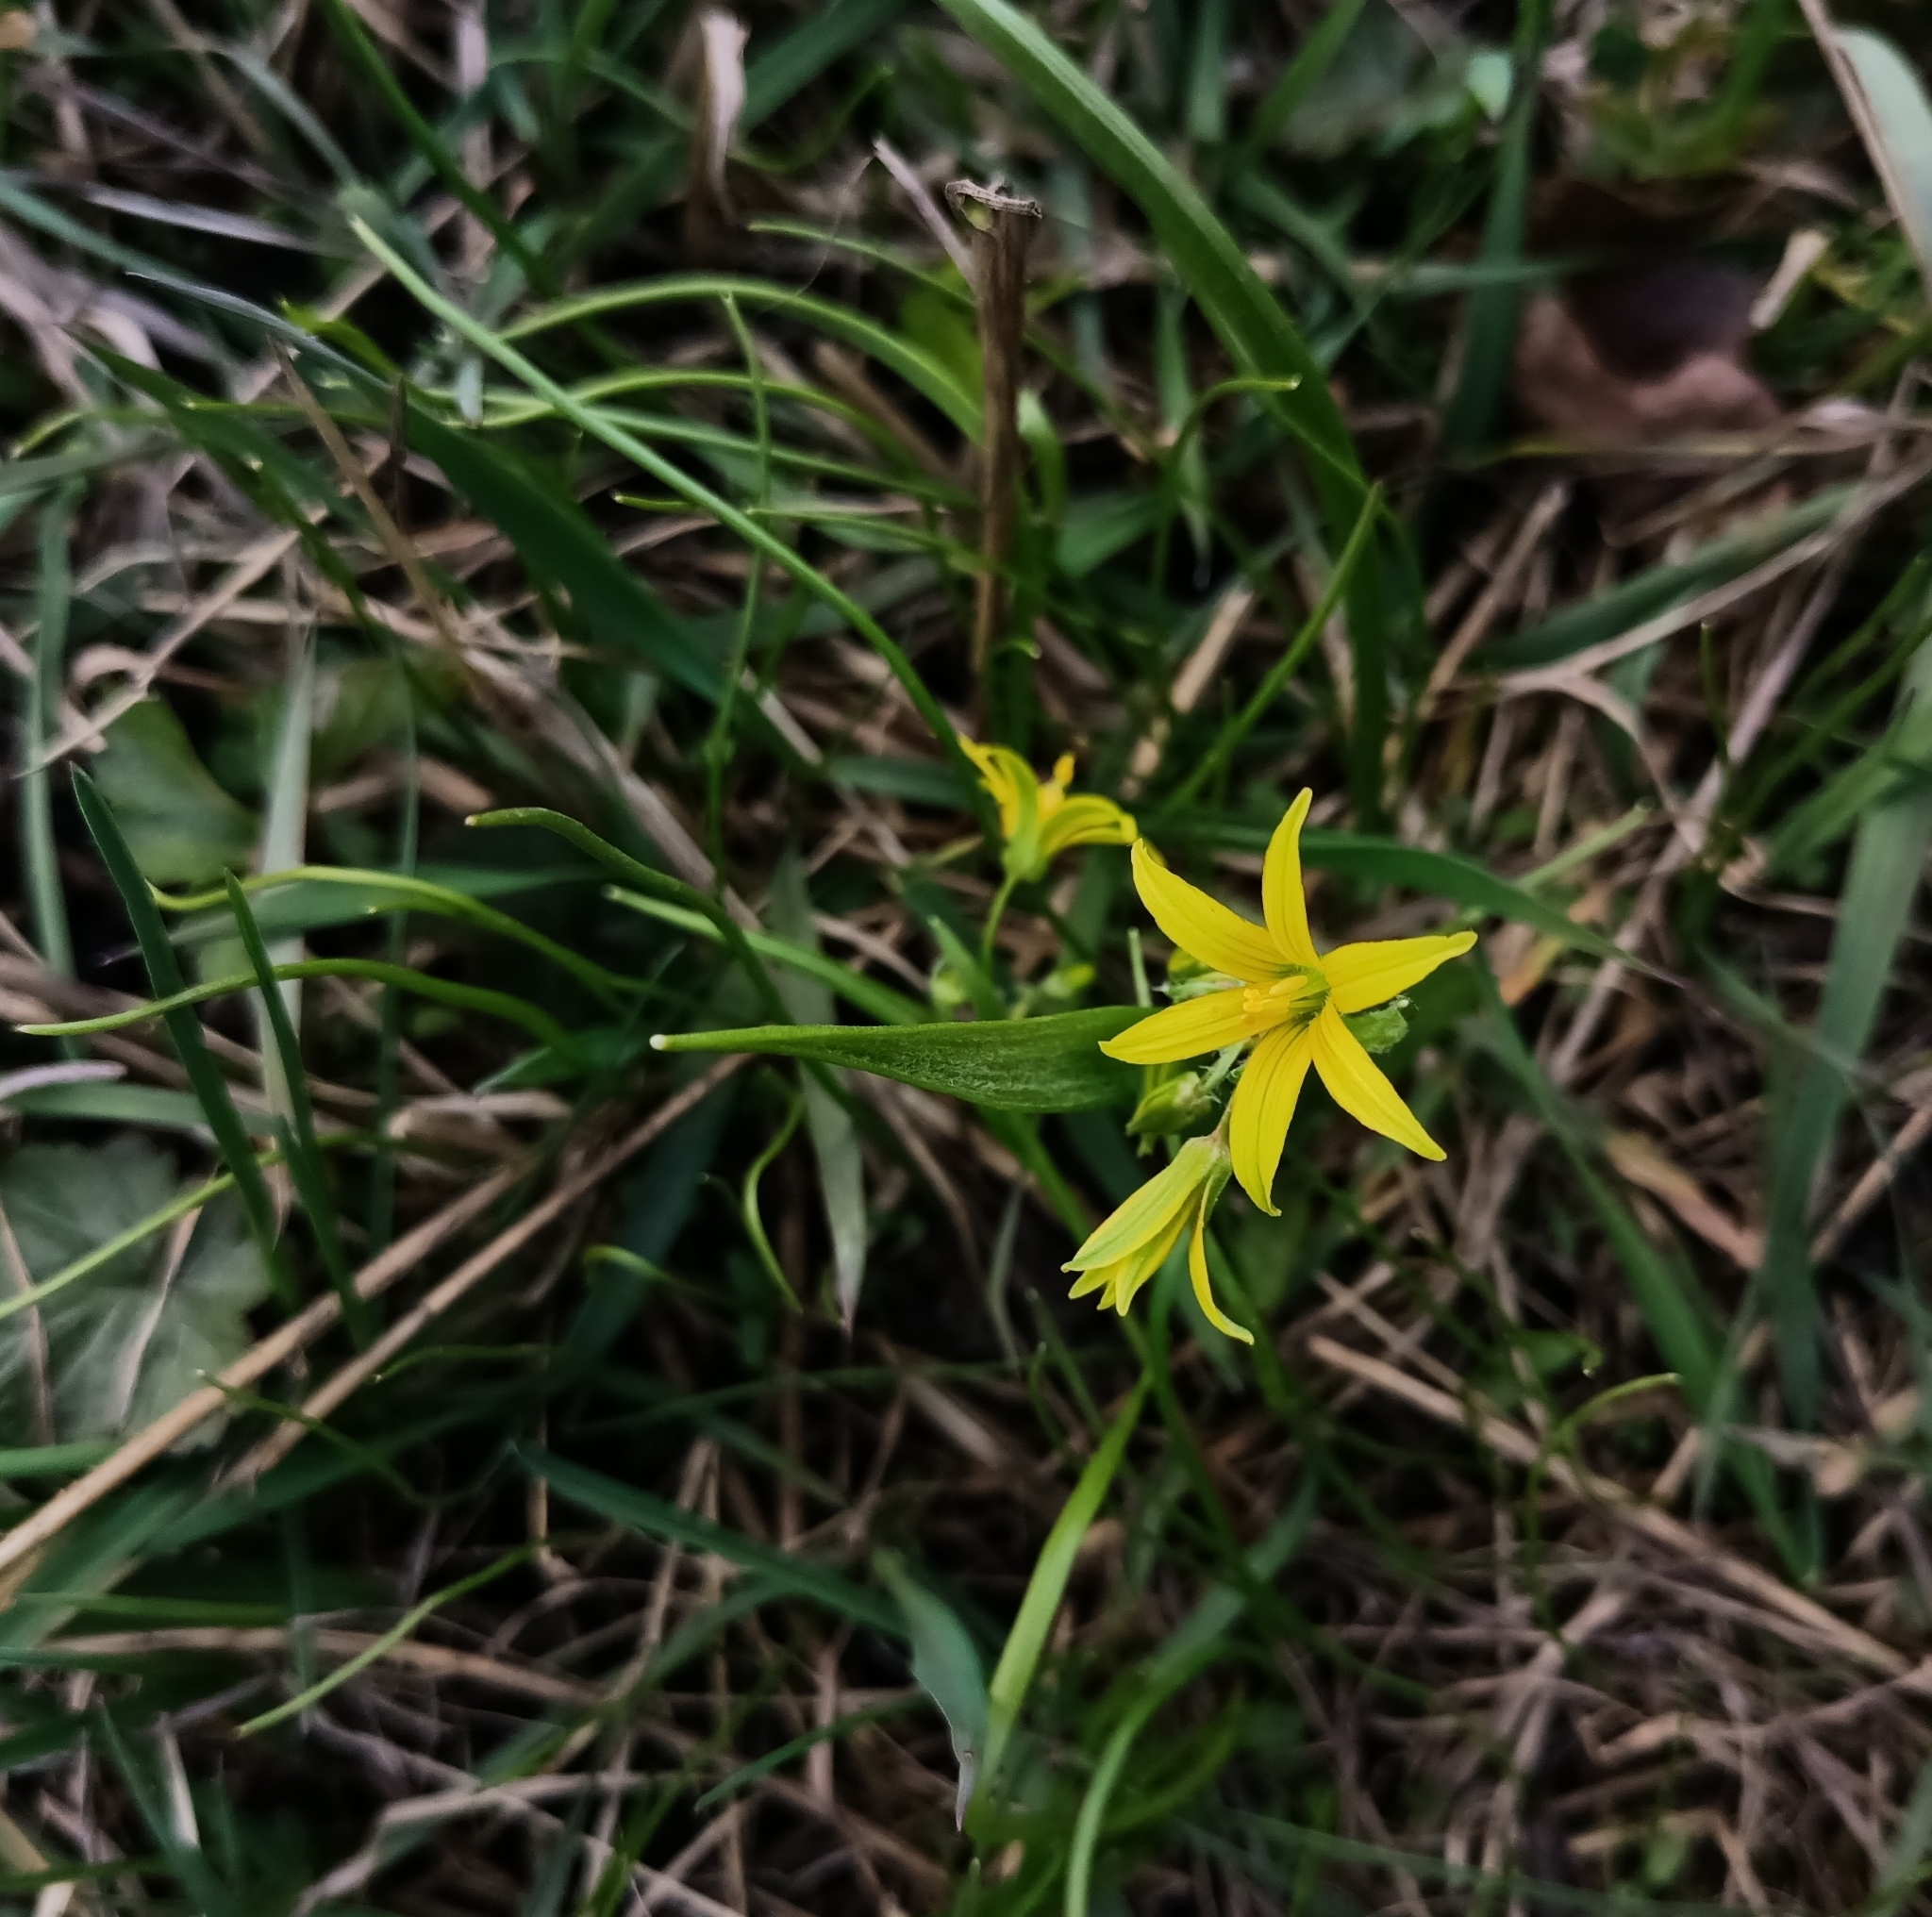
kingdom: Plantae
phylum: Tracheophyta
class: Liliopsida
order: Liliales
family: Liliaceae
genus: Gagea
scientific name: Gagea minima
